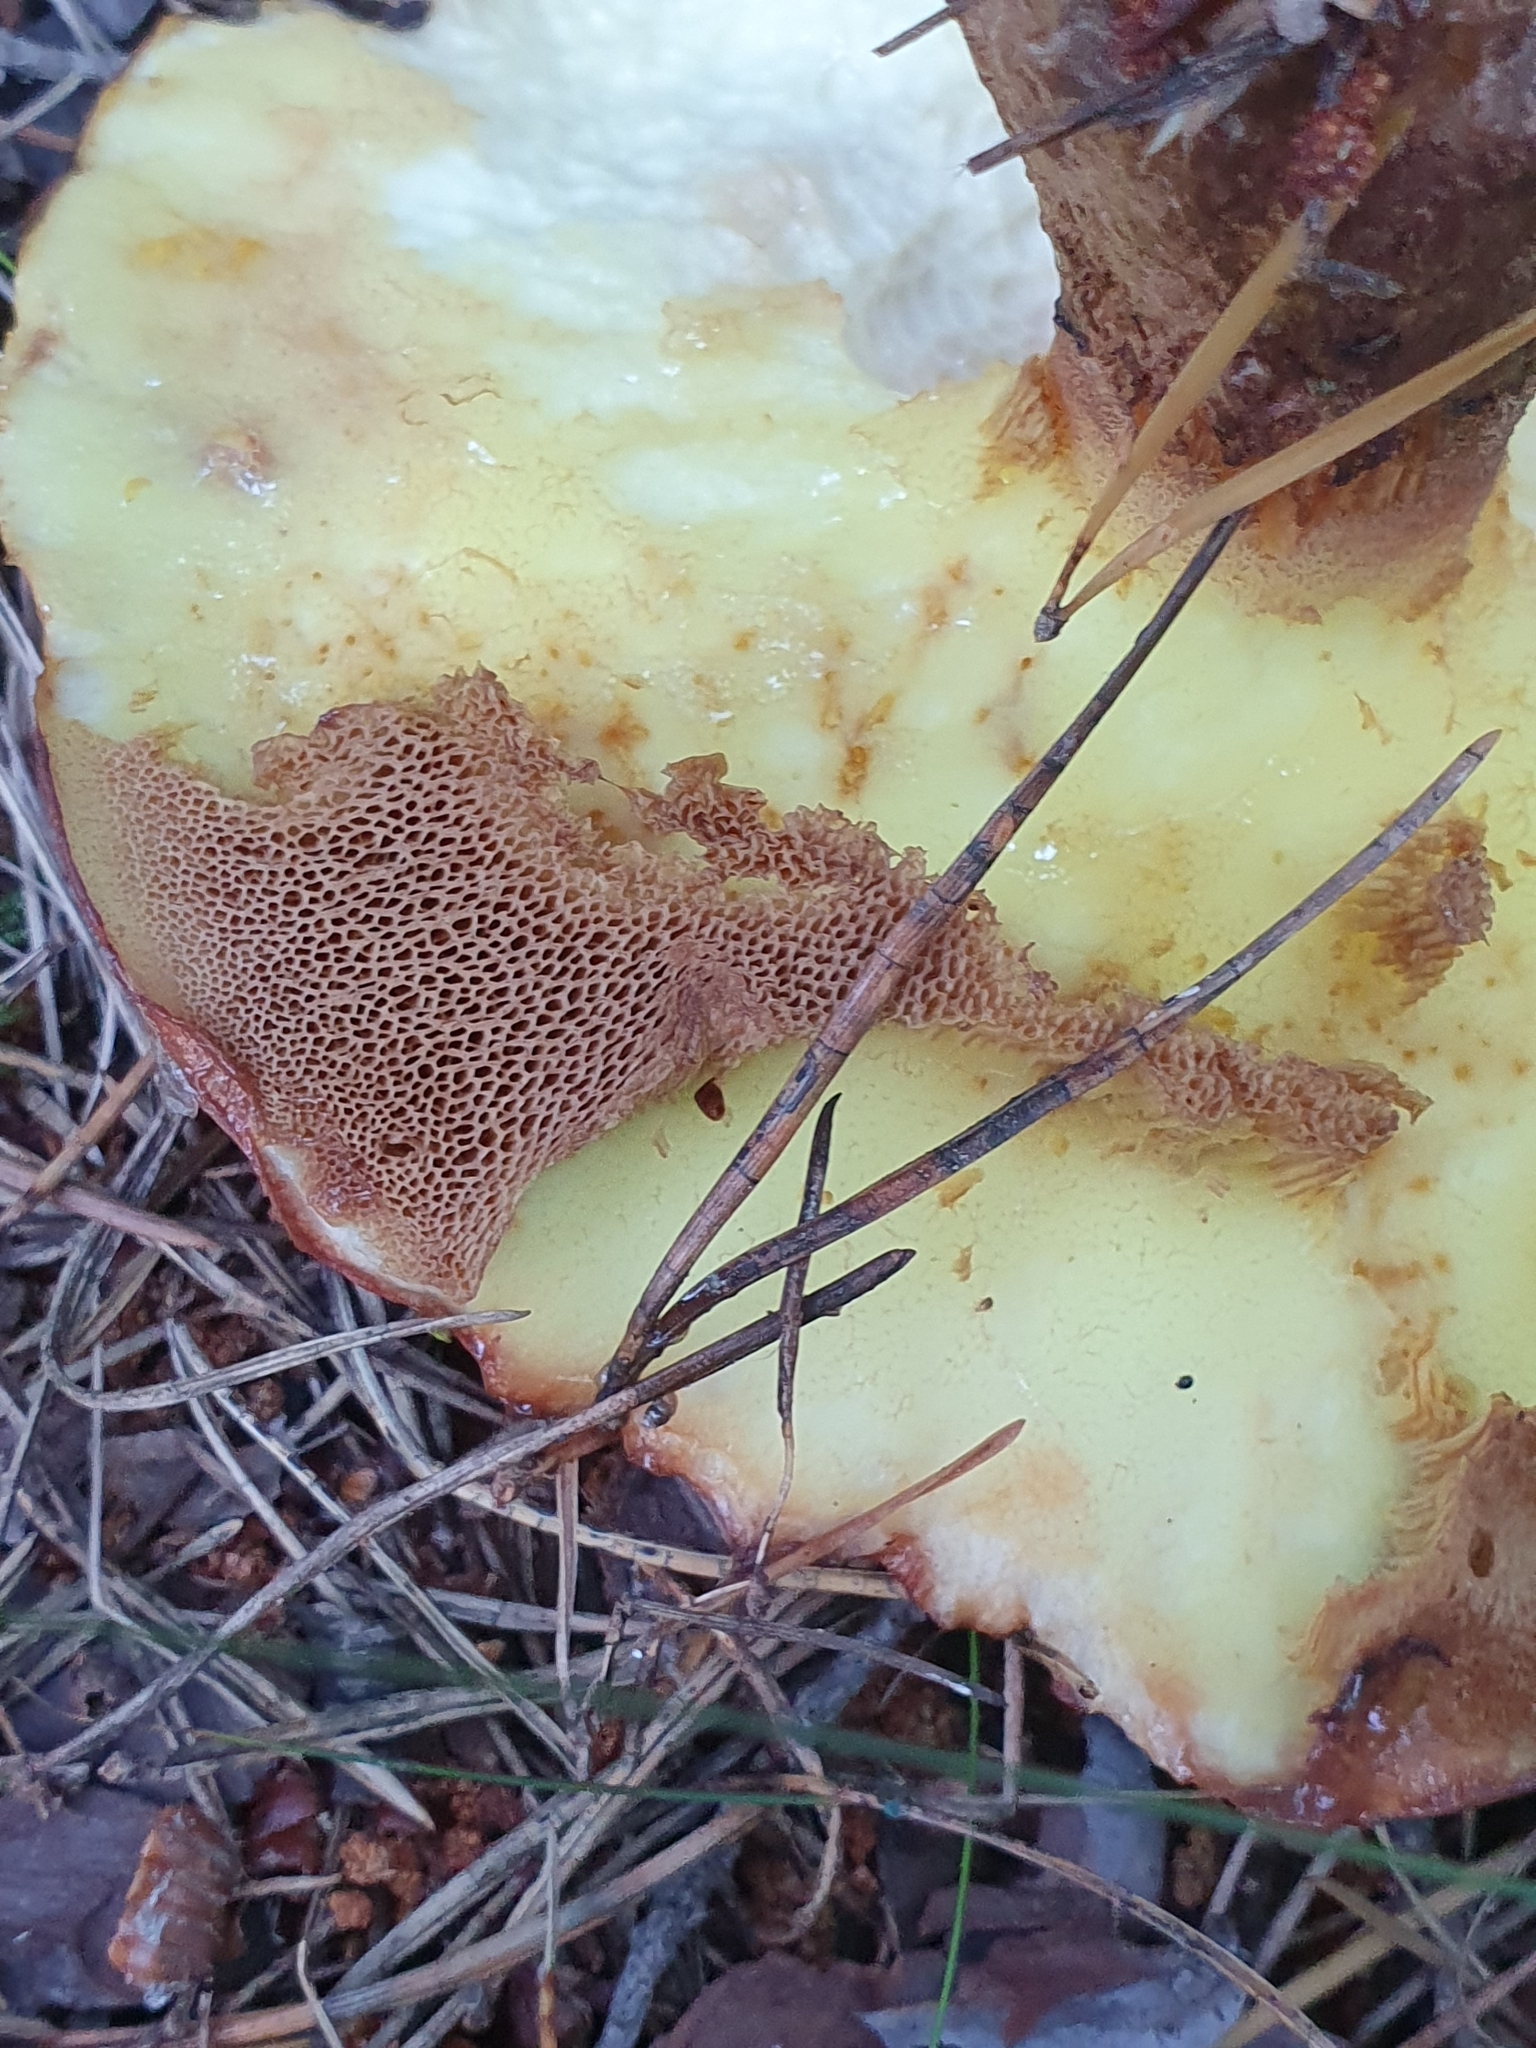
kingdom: Fungi
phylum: Basidiomycota
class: Agaricomycetes
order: Boletales
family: Suillaceae
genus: Suillus
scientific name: Suillus luteus
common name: Slippery jack
